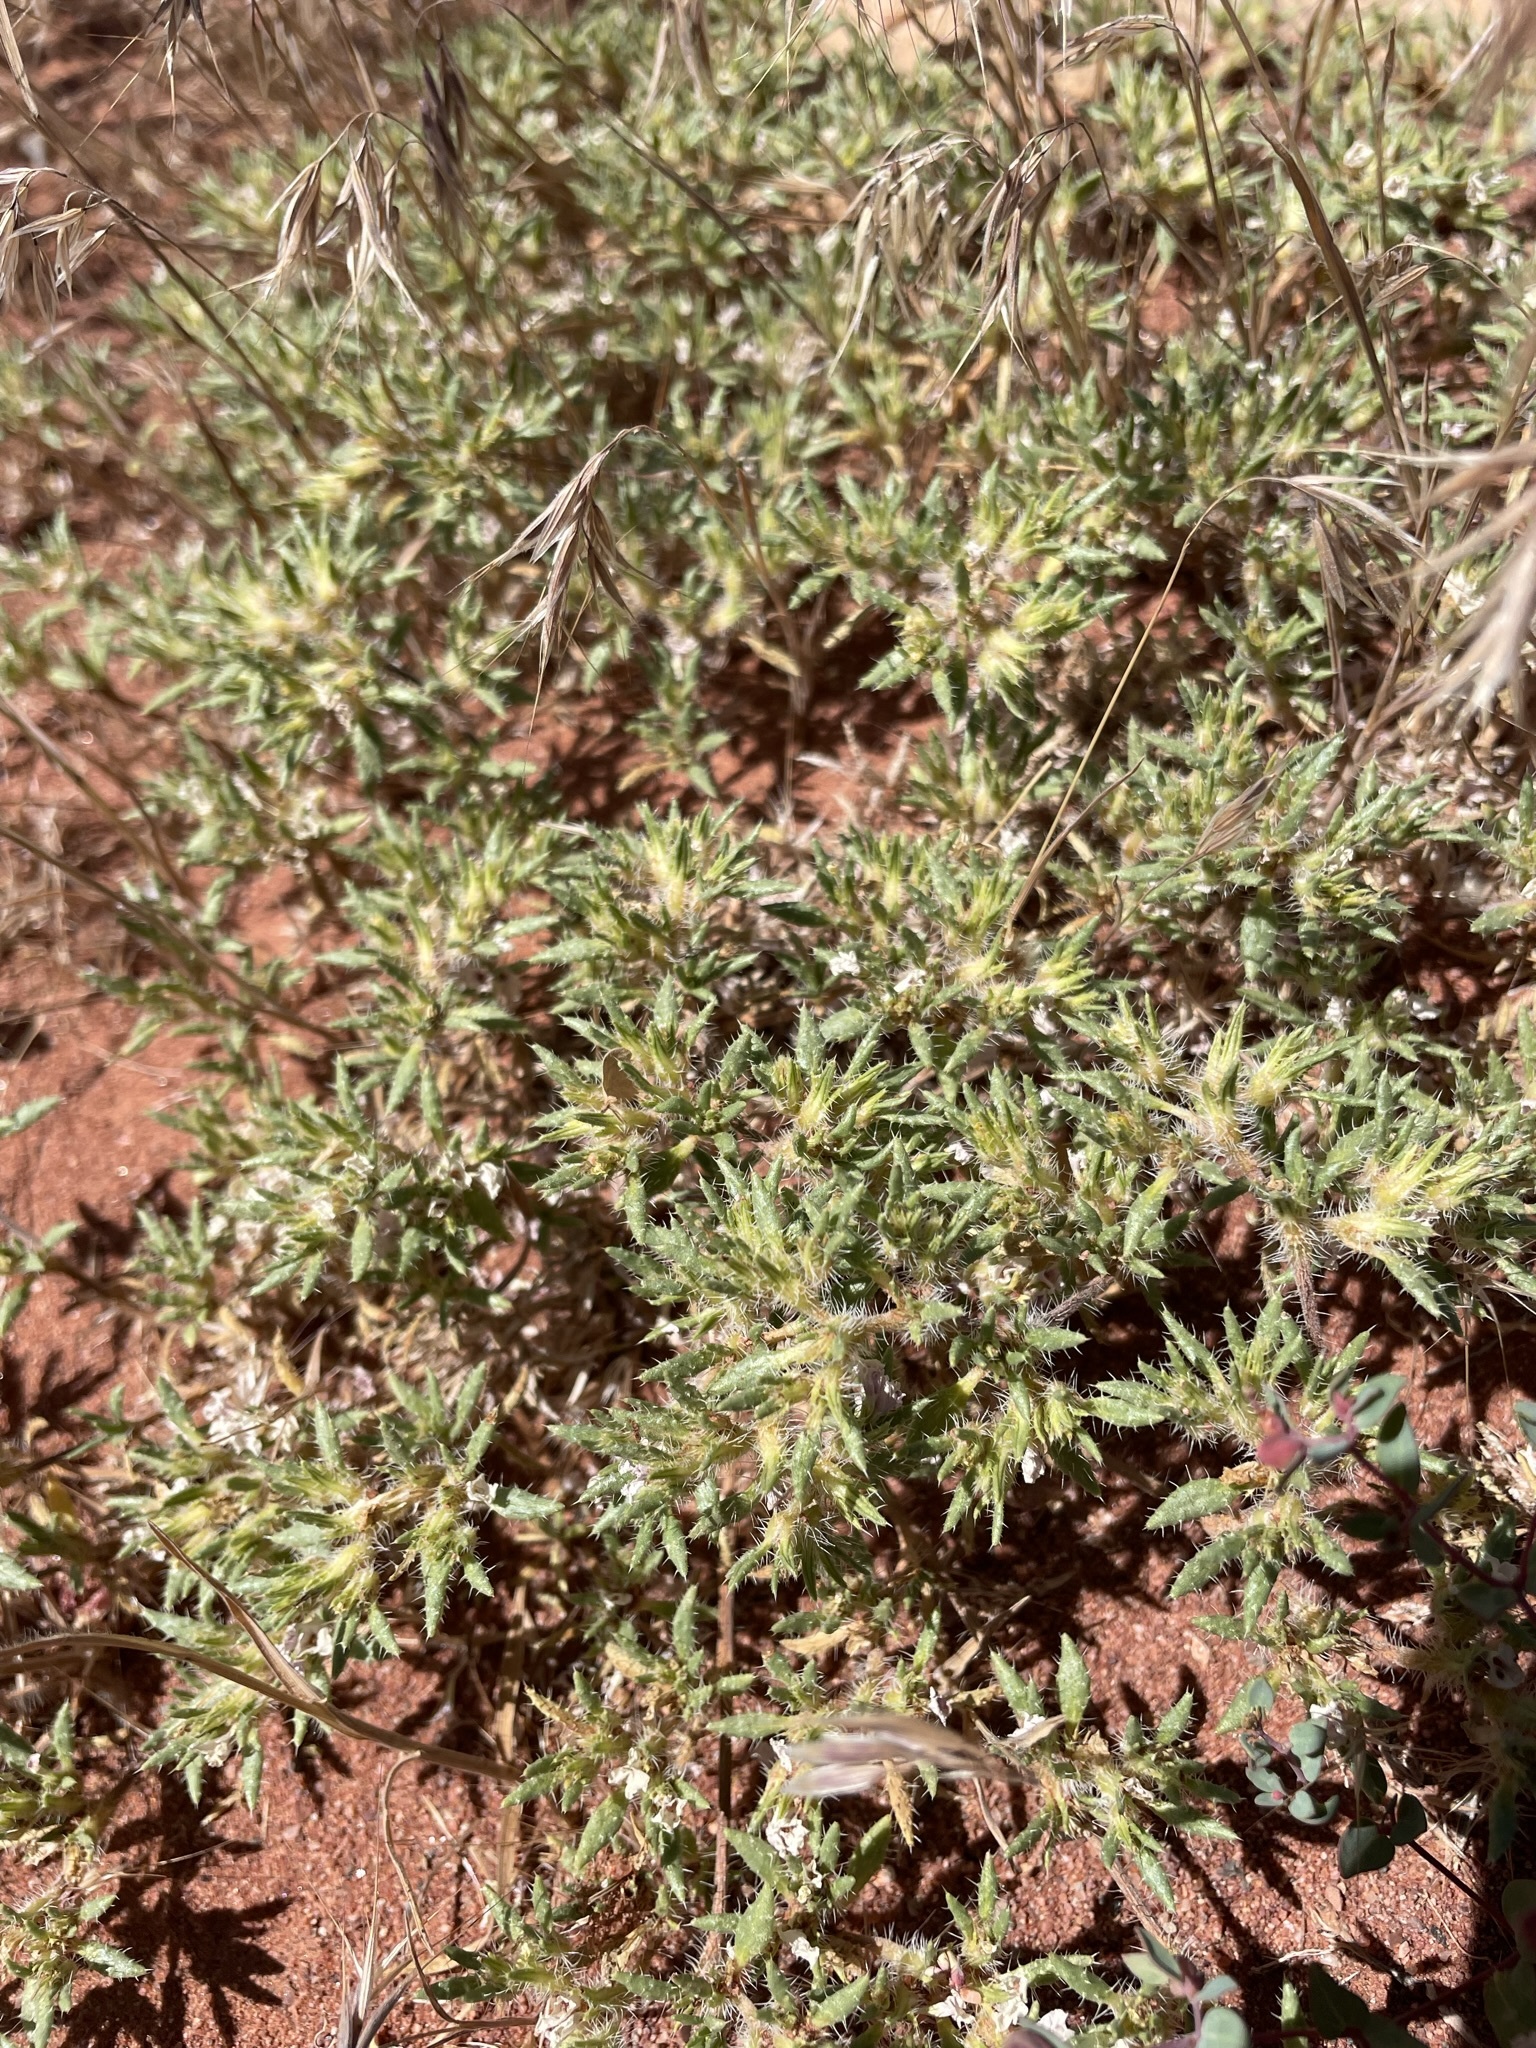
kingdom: Plantae
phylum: Tracheophyta
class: Magnoliopsida
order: Boraginales
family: Ehretiaceae
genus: Tiquilia
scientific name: Tiquilia latior
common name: Matted tiquilia
